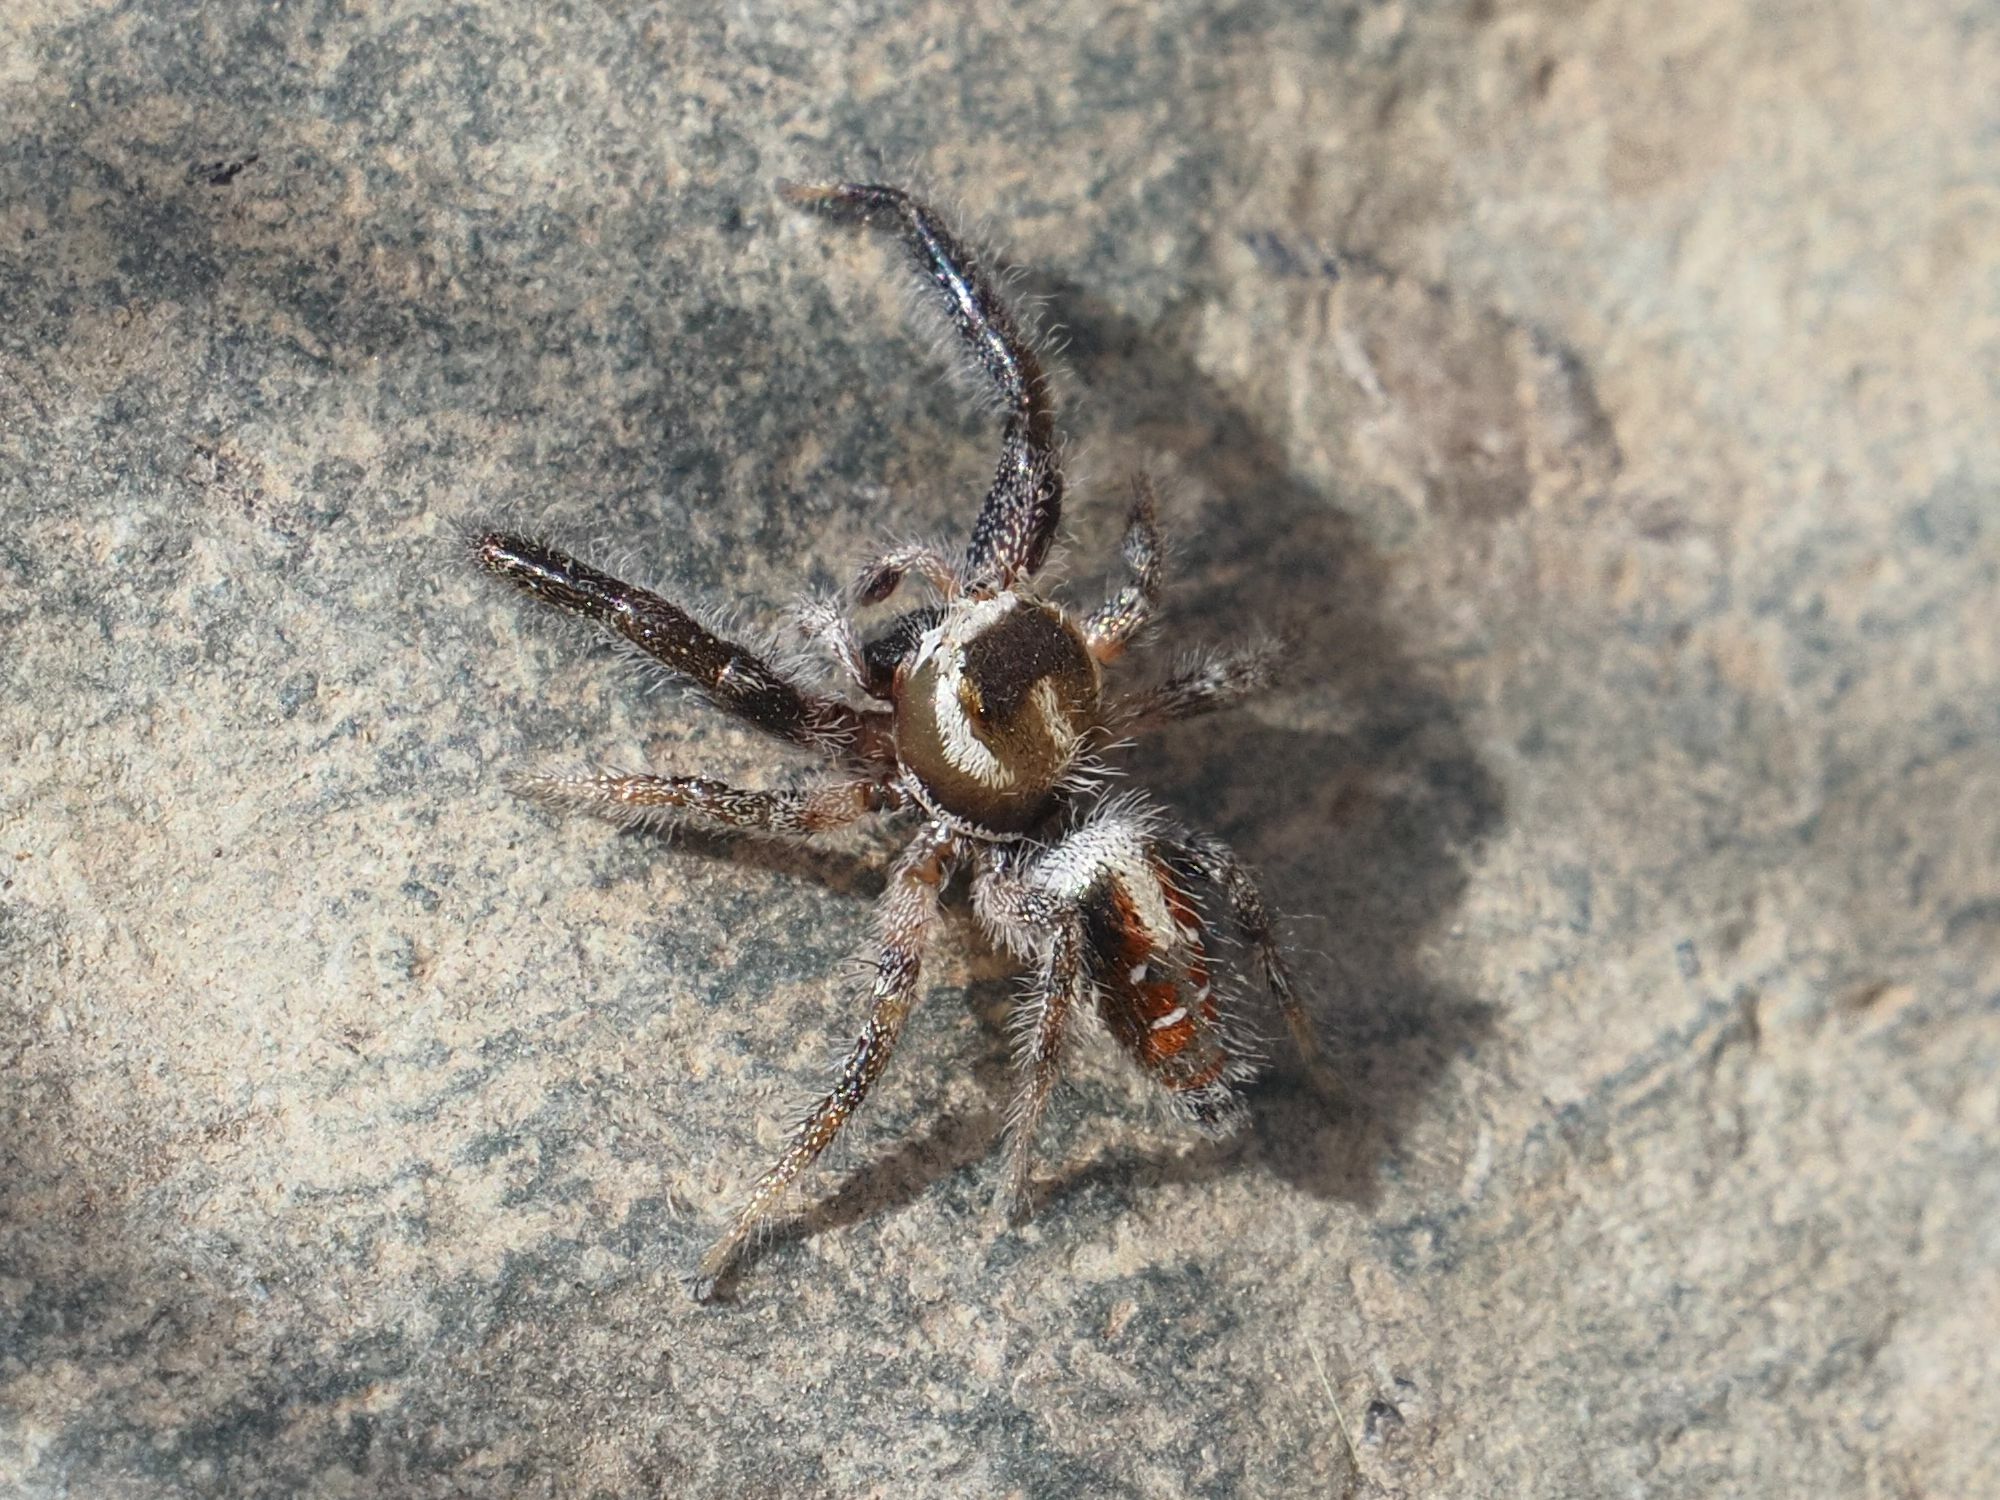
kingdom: Animalia
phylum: Arthropoda
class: Arachnida
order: Araneae
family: Salticidae
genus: Thyene
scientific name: Thyene imperialis
